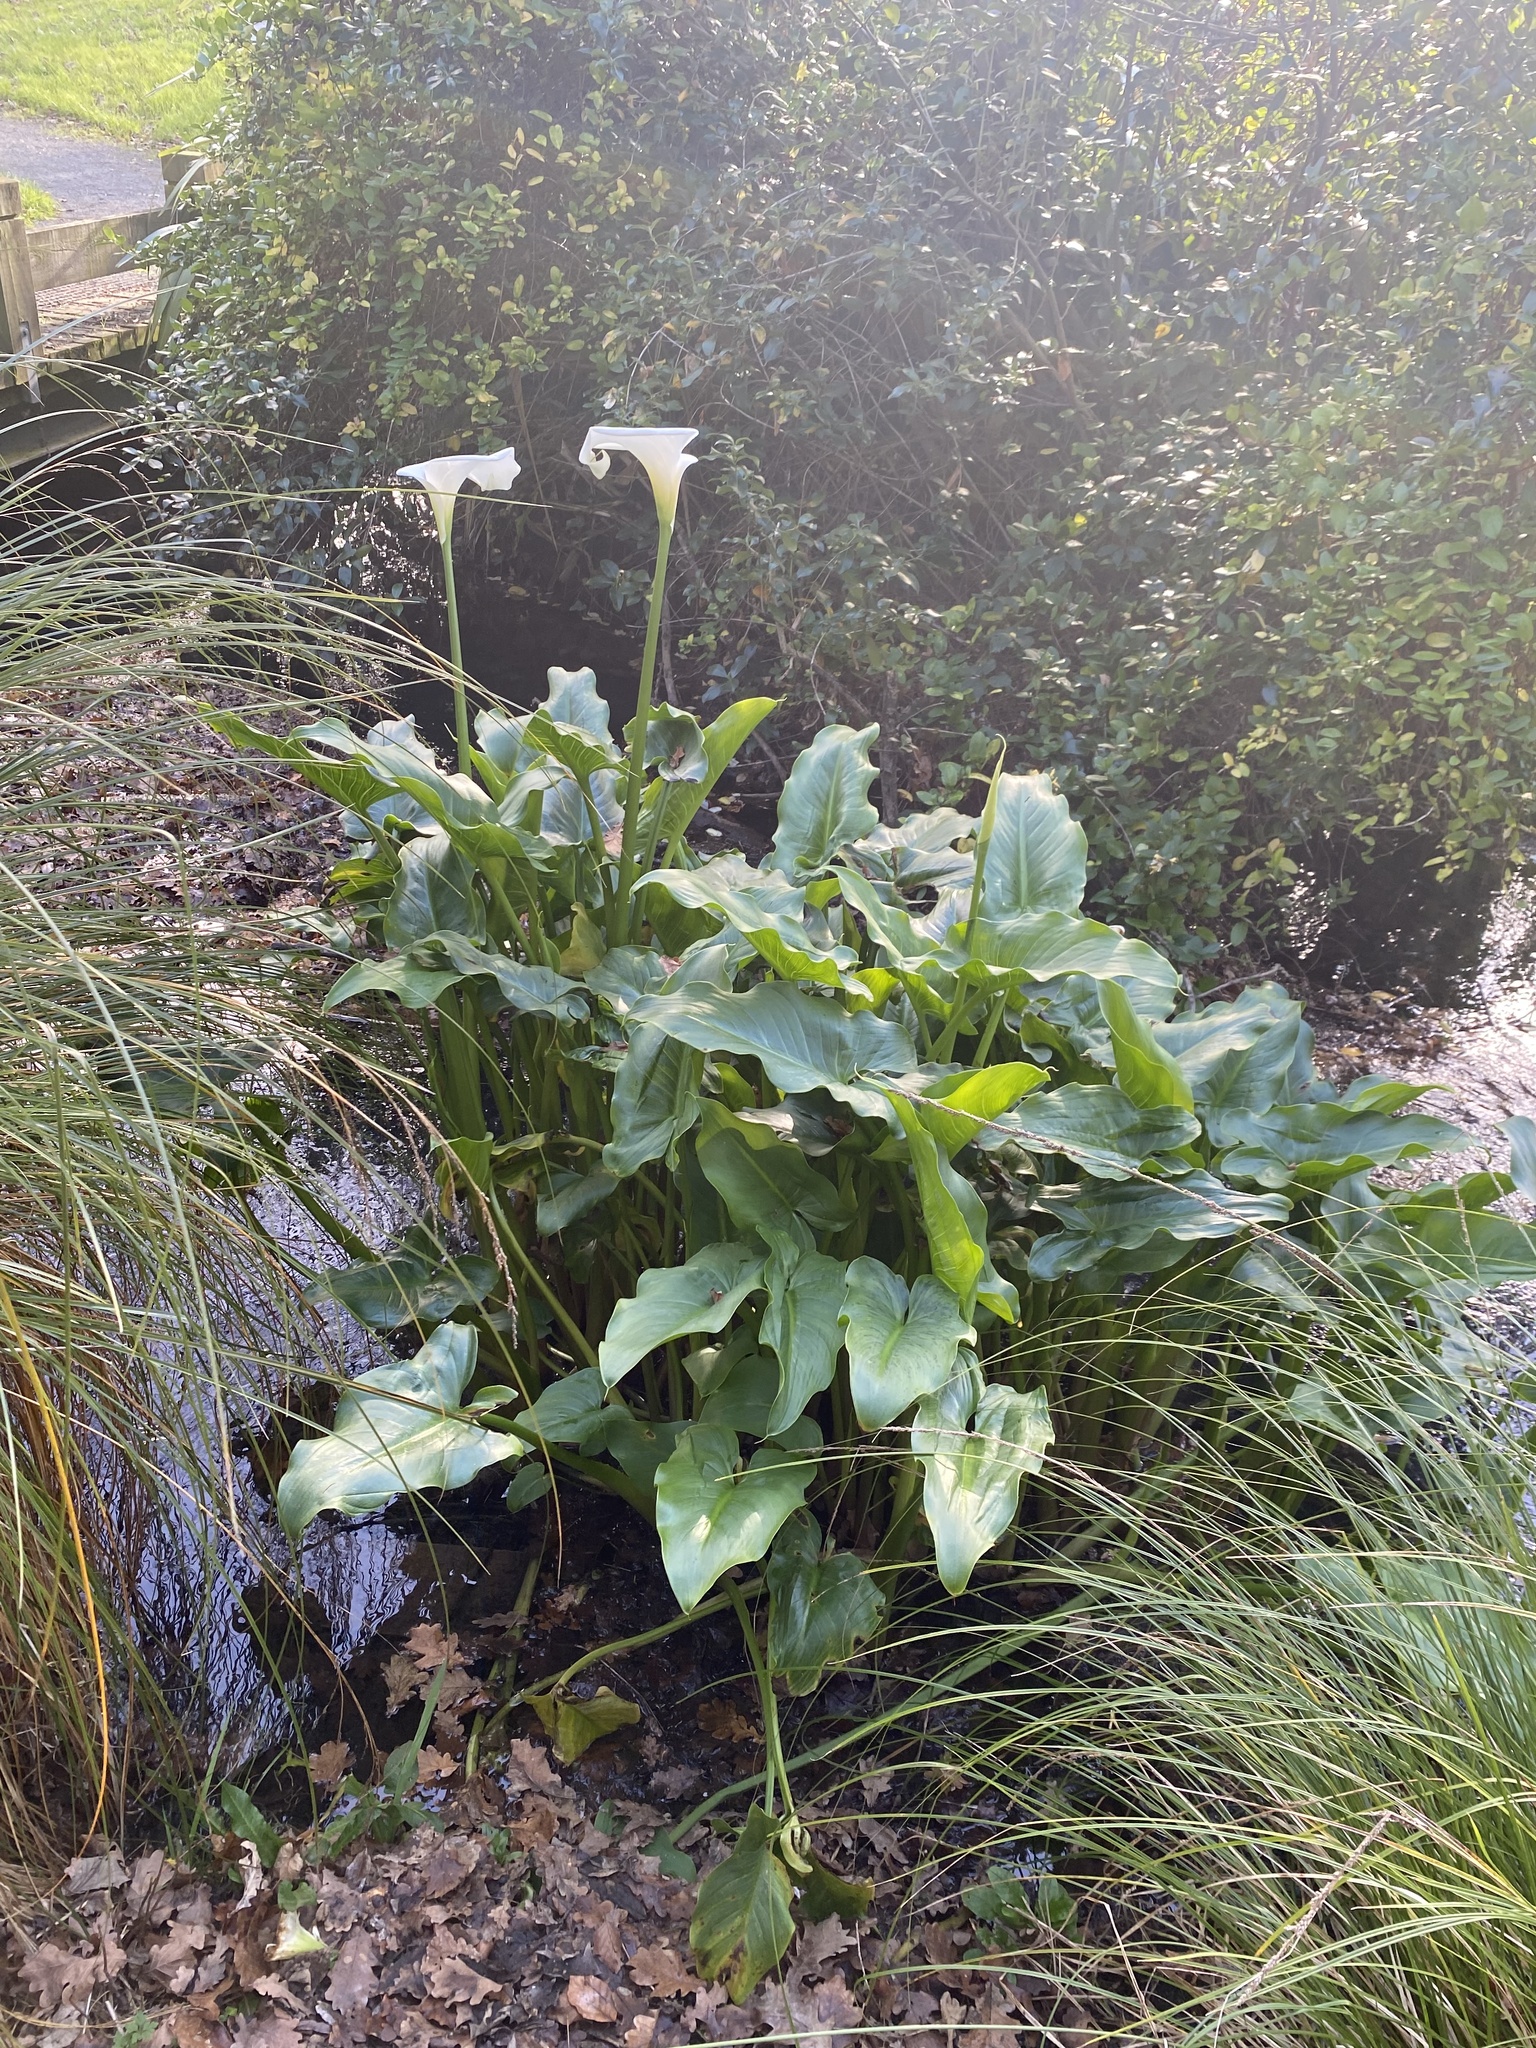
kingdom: Plantae
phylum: Tracheophyta
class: Liliopsida
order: Alismatales
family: Araceae
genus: Zantedeschia
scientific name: Zantedeschia aethiopica
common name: Altar-lily
